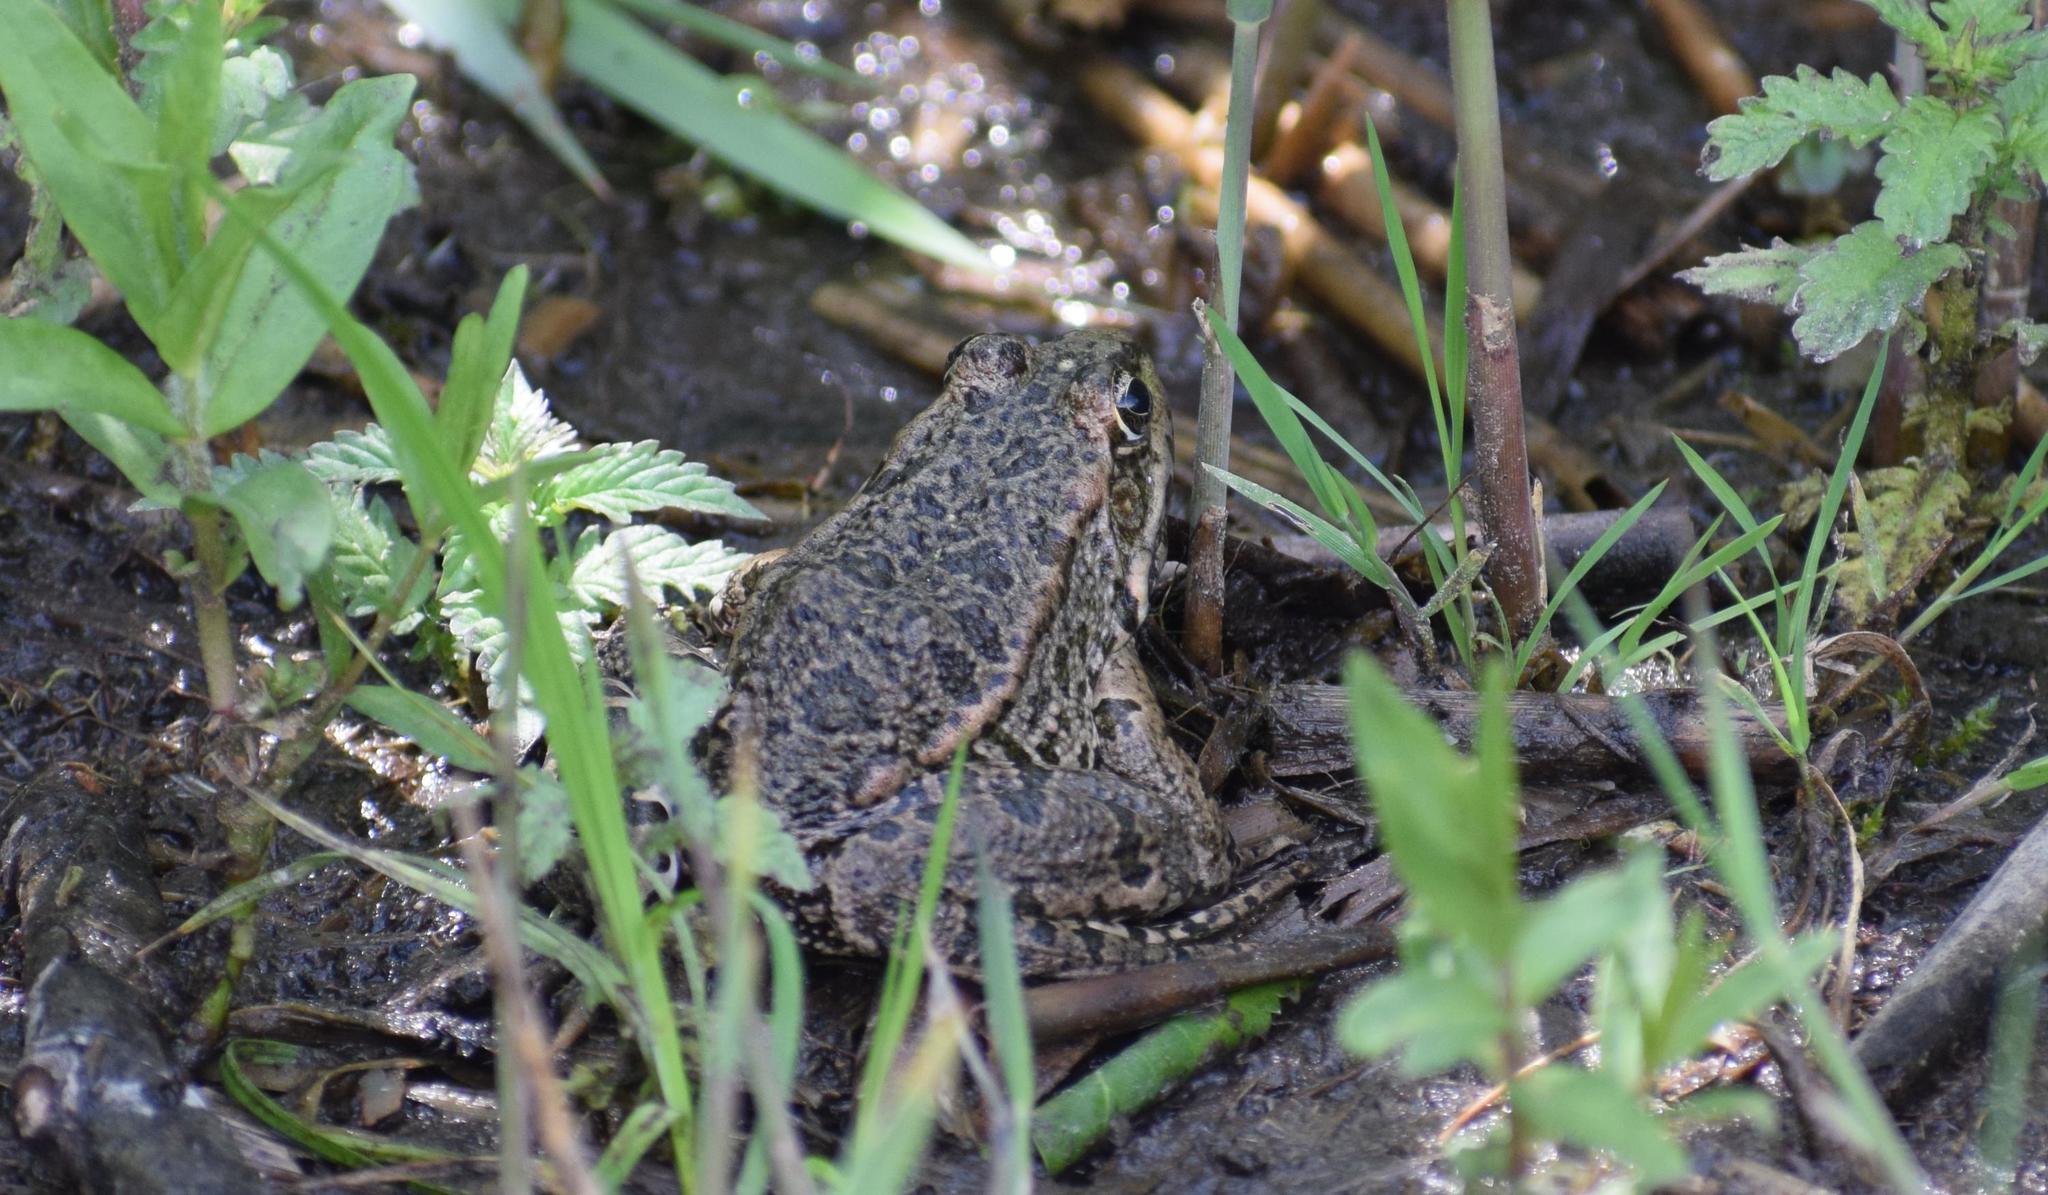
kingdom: Animalia
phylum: Chordata
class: Amphibia
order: Anura
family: Ranidae
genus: Pelophylax
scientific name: Pelophylax
